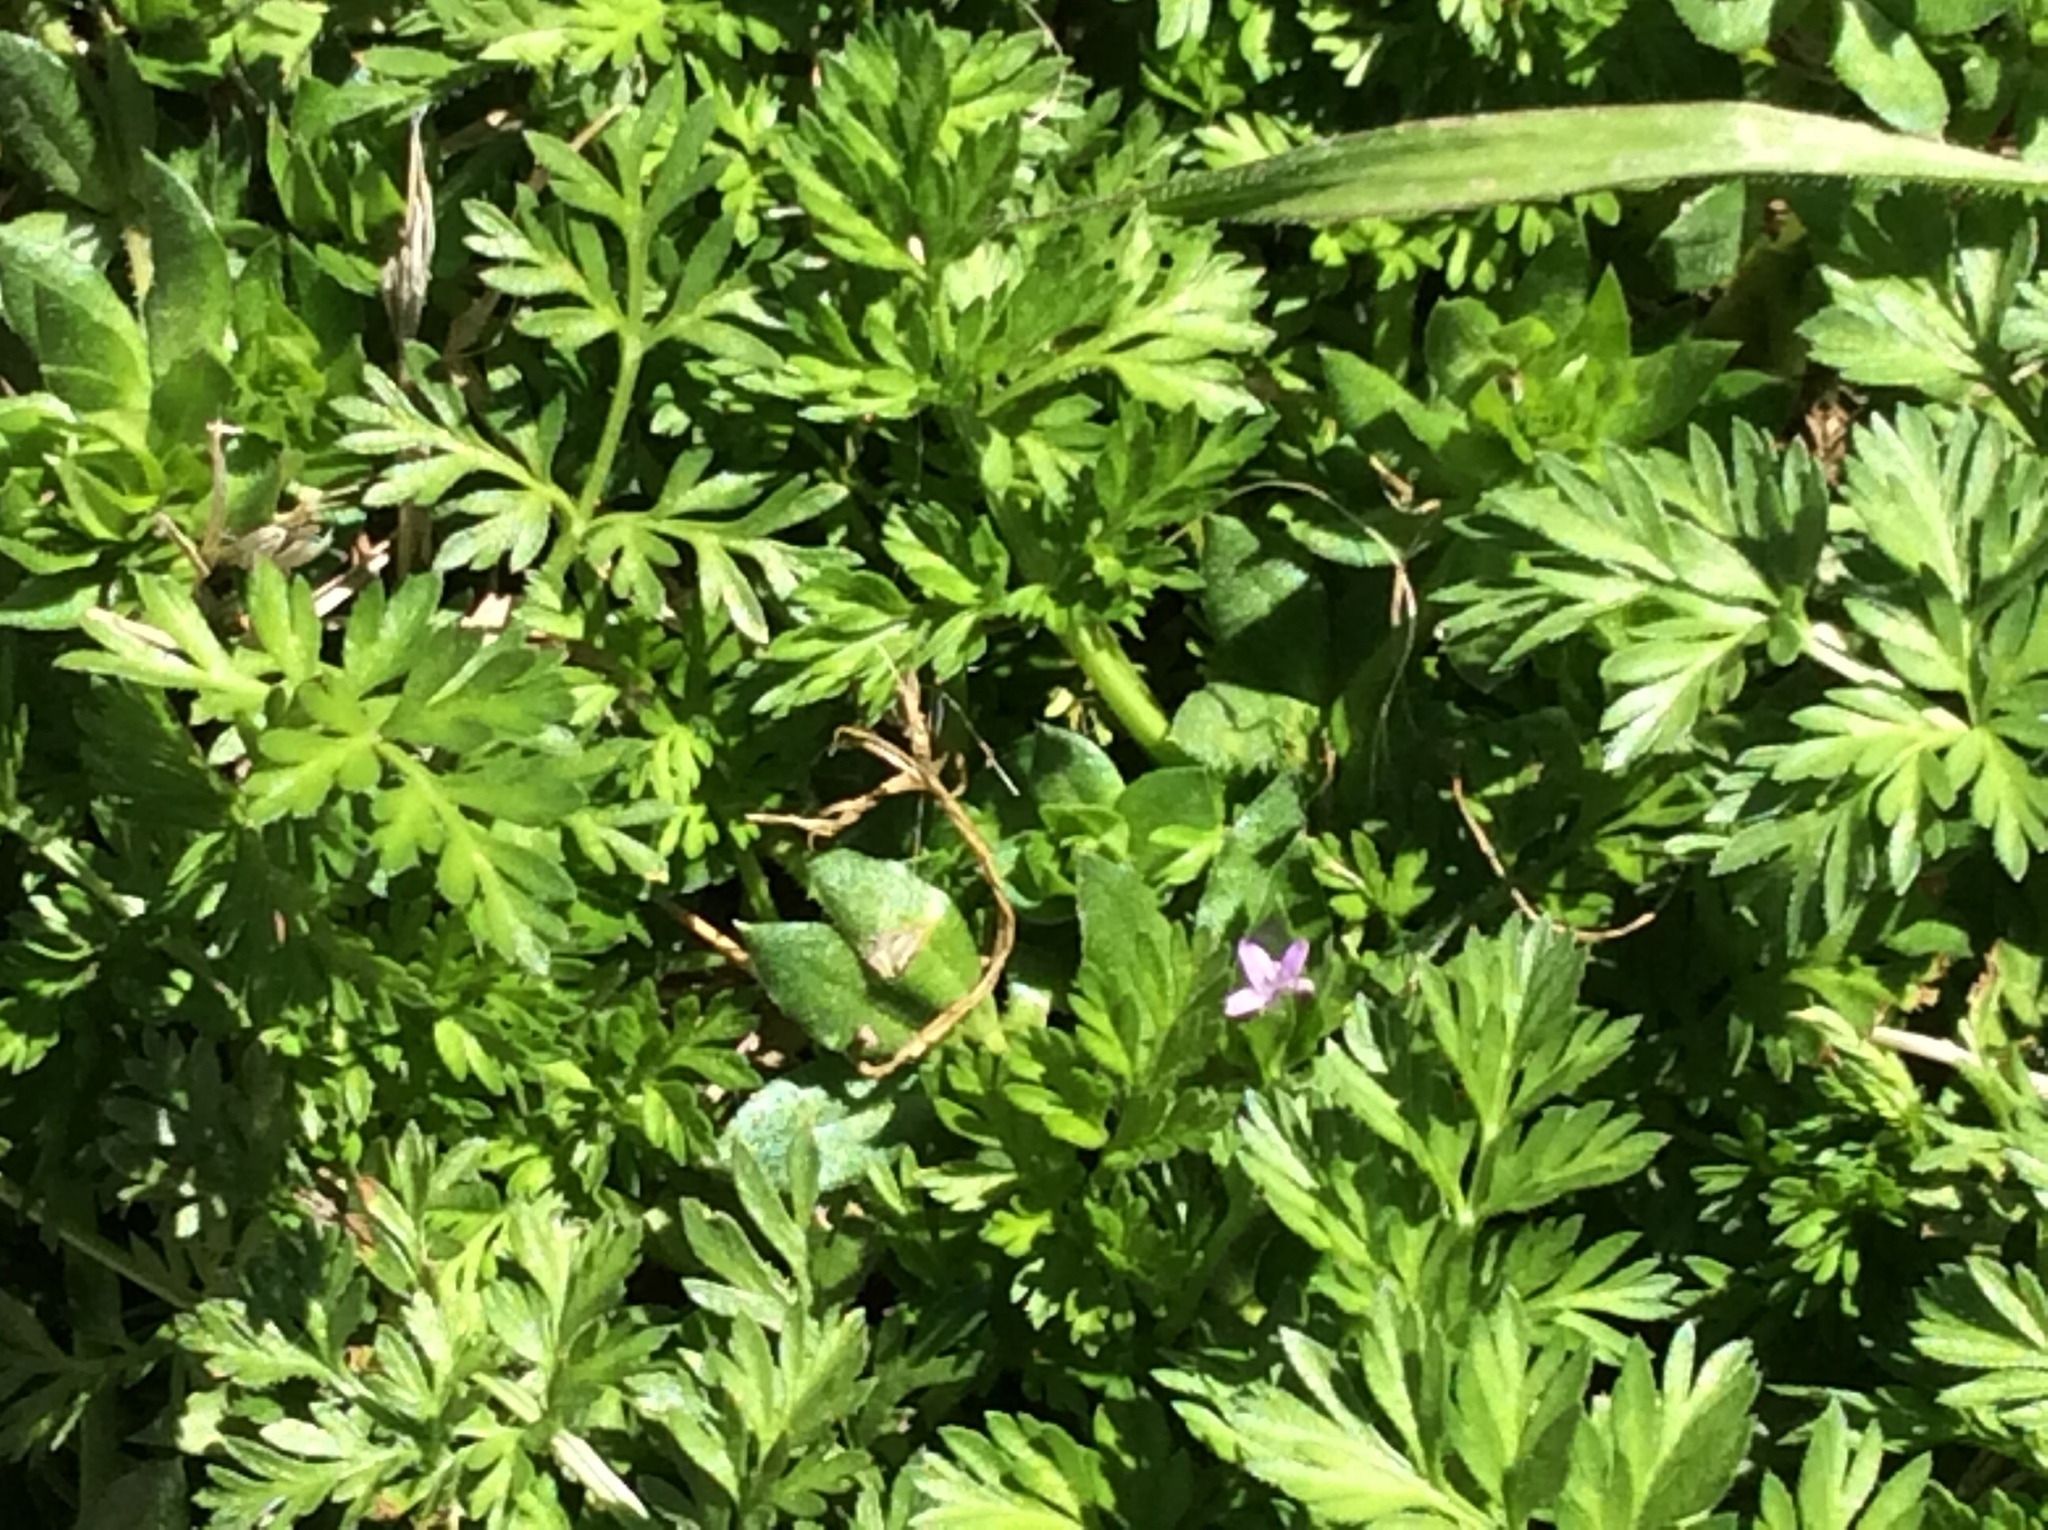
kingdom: Plantae
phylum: Tracheophyta
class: Magnoliopsida
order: Gentianales
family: Rubiaceae
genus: Sherardia
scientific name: Sherardia arvensis
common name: Field madder
